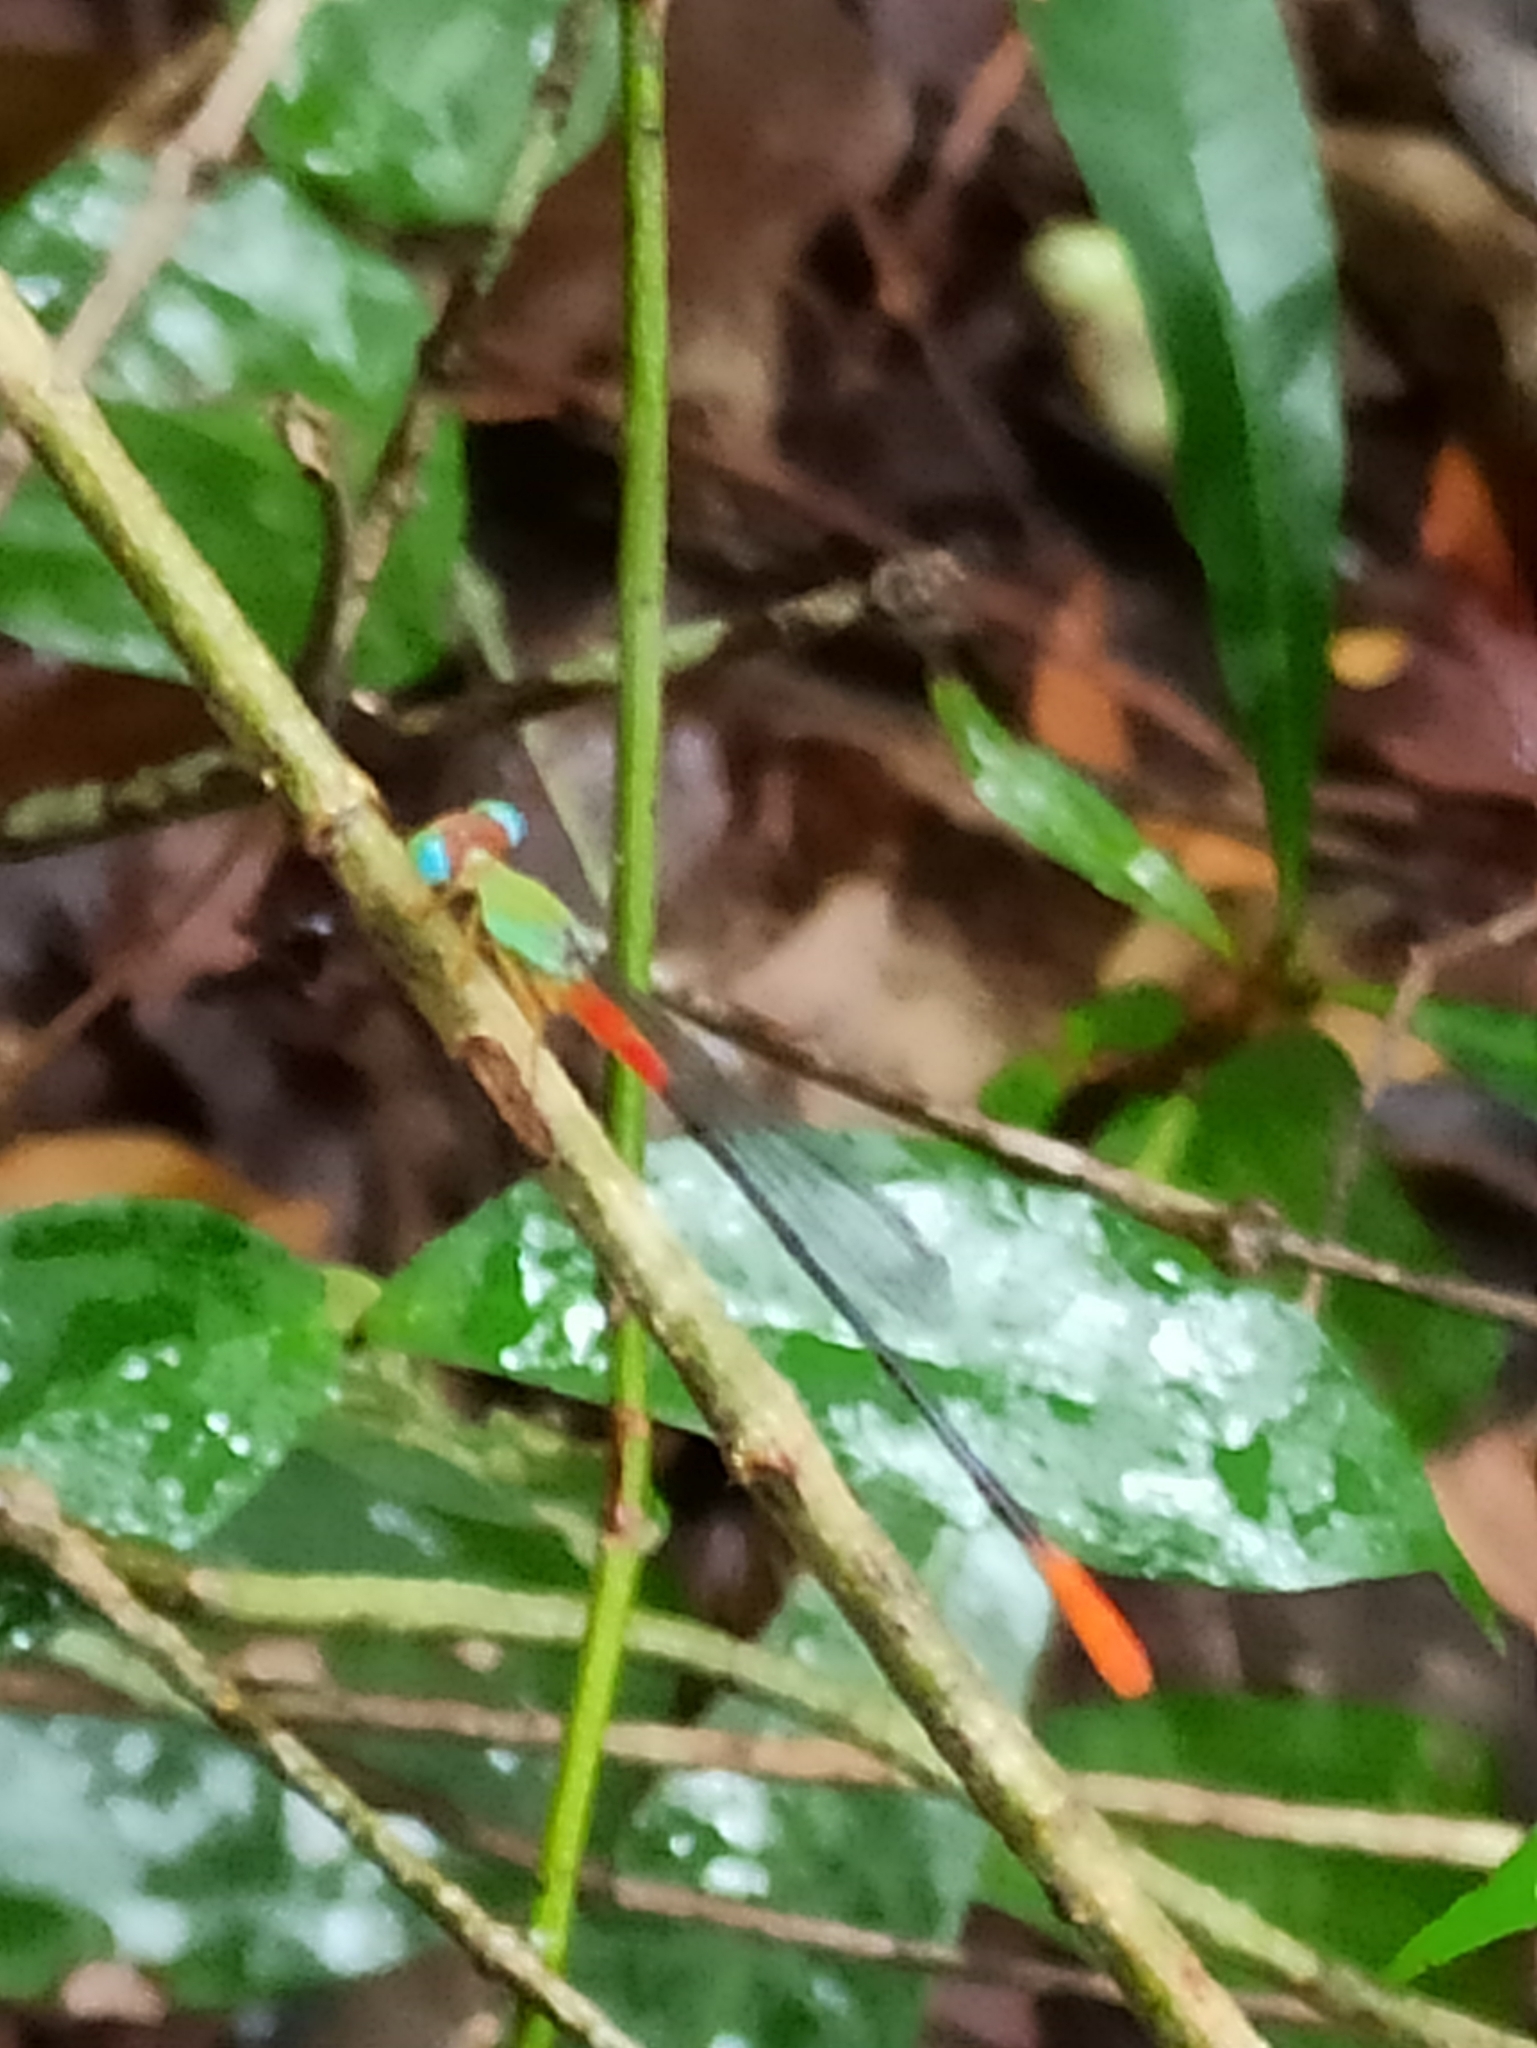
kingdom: Animalia
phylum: Arthropoda
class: Insecta
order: Odonata
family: Coenagrionidae
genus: Ceriagrion
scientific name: Ceriagrion cerinorubellum
